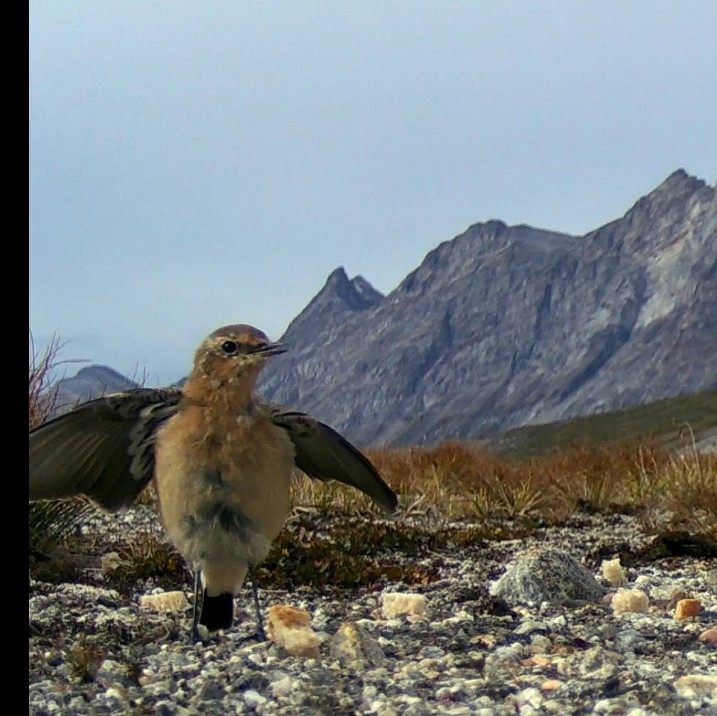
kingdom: Animalia
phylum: Chordata
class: Aves
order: Passeriformes
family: Muscicapidae
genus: Oenanthe
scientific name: Oenanthe oenanthe
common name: Northern wheatear
